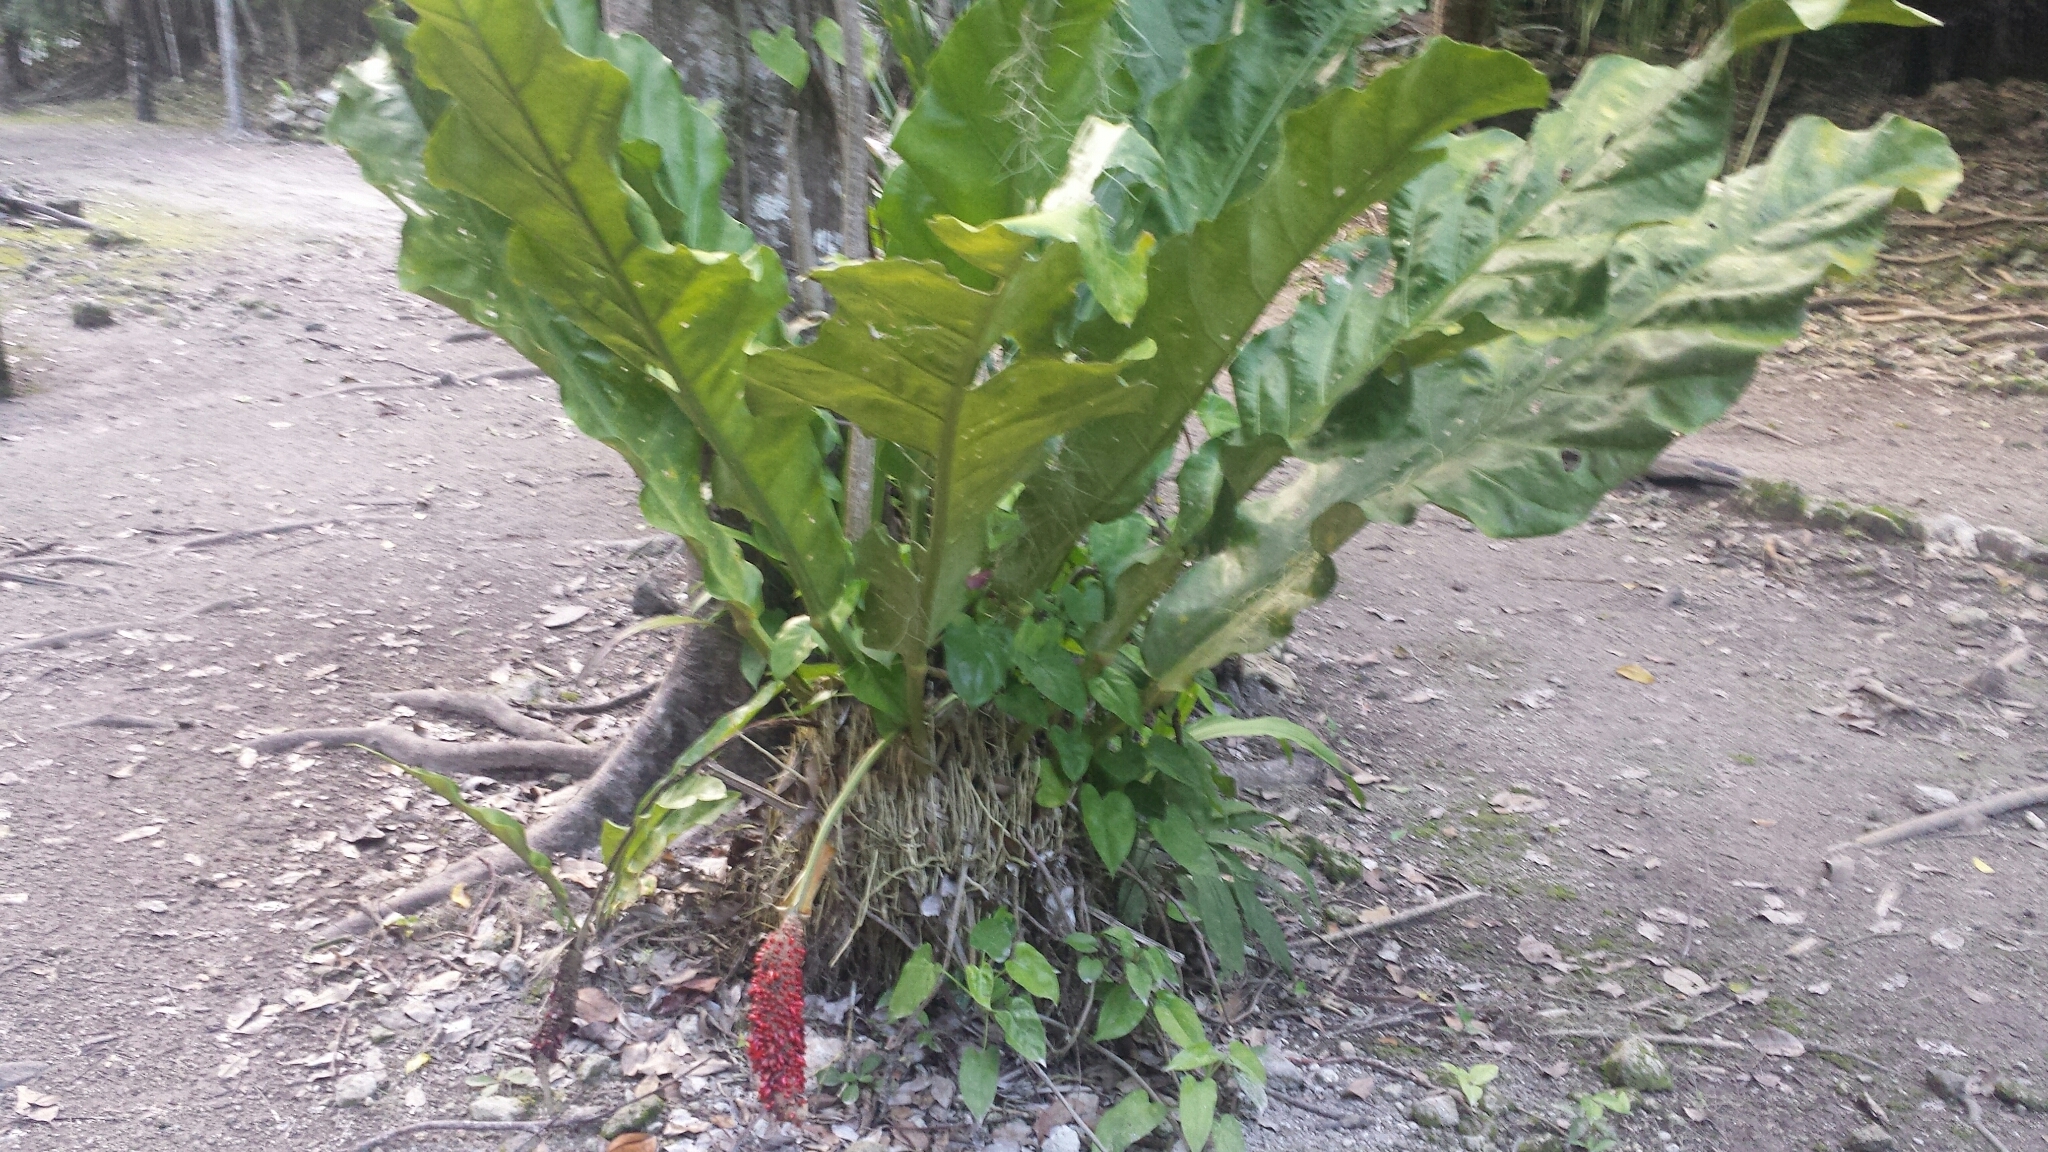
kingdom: Plantae
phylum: Tracheophyta
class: Liliopsida
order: Alismatales
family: Araceae
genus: Anthurium
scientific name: Anthurium schlechtendalii
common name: Laceleaf
